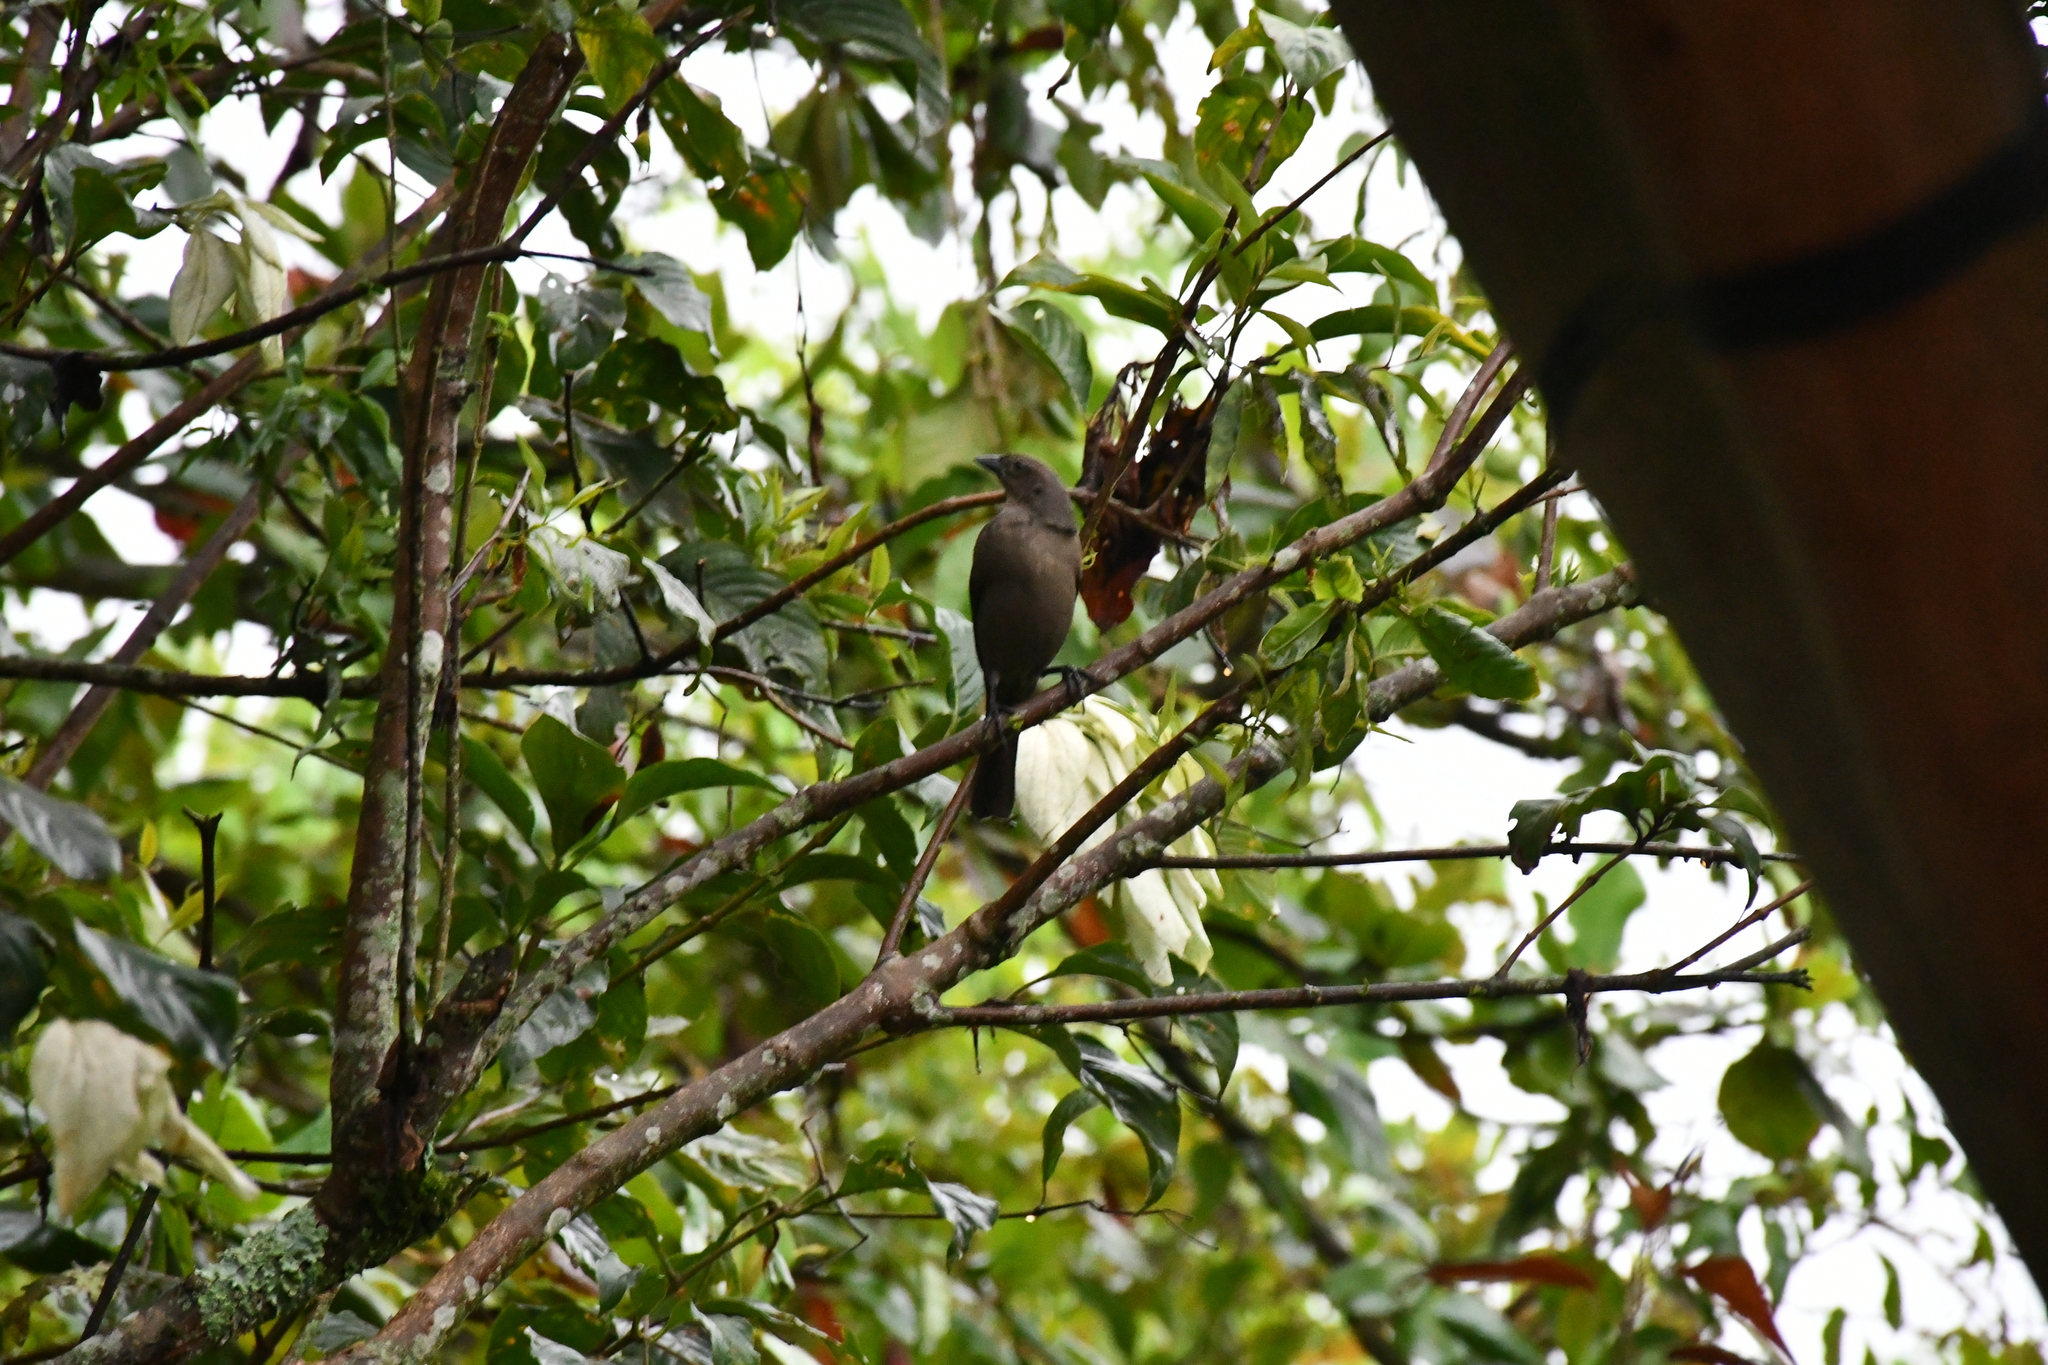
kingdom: Animalia
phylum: Chordata
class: Aves
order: Passeriformes
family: Icteridae
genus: Molothrus
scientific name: Molothrus bonariensis
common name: Shiny cowbird
